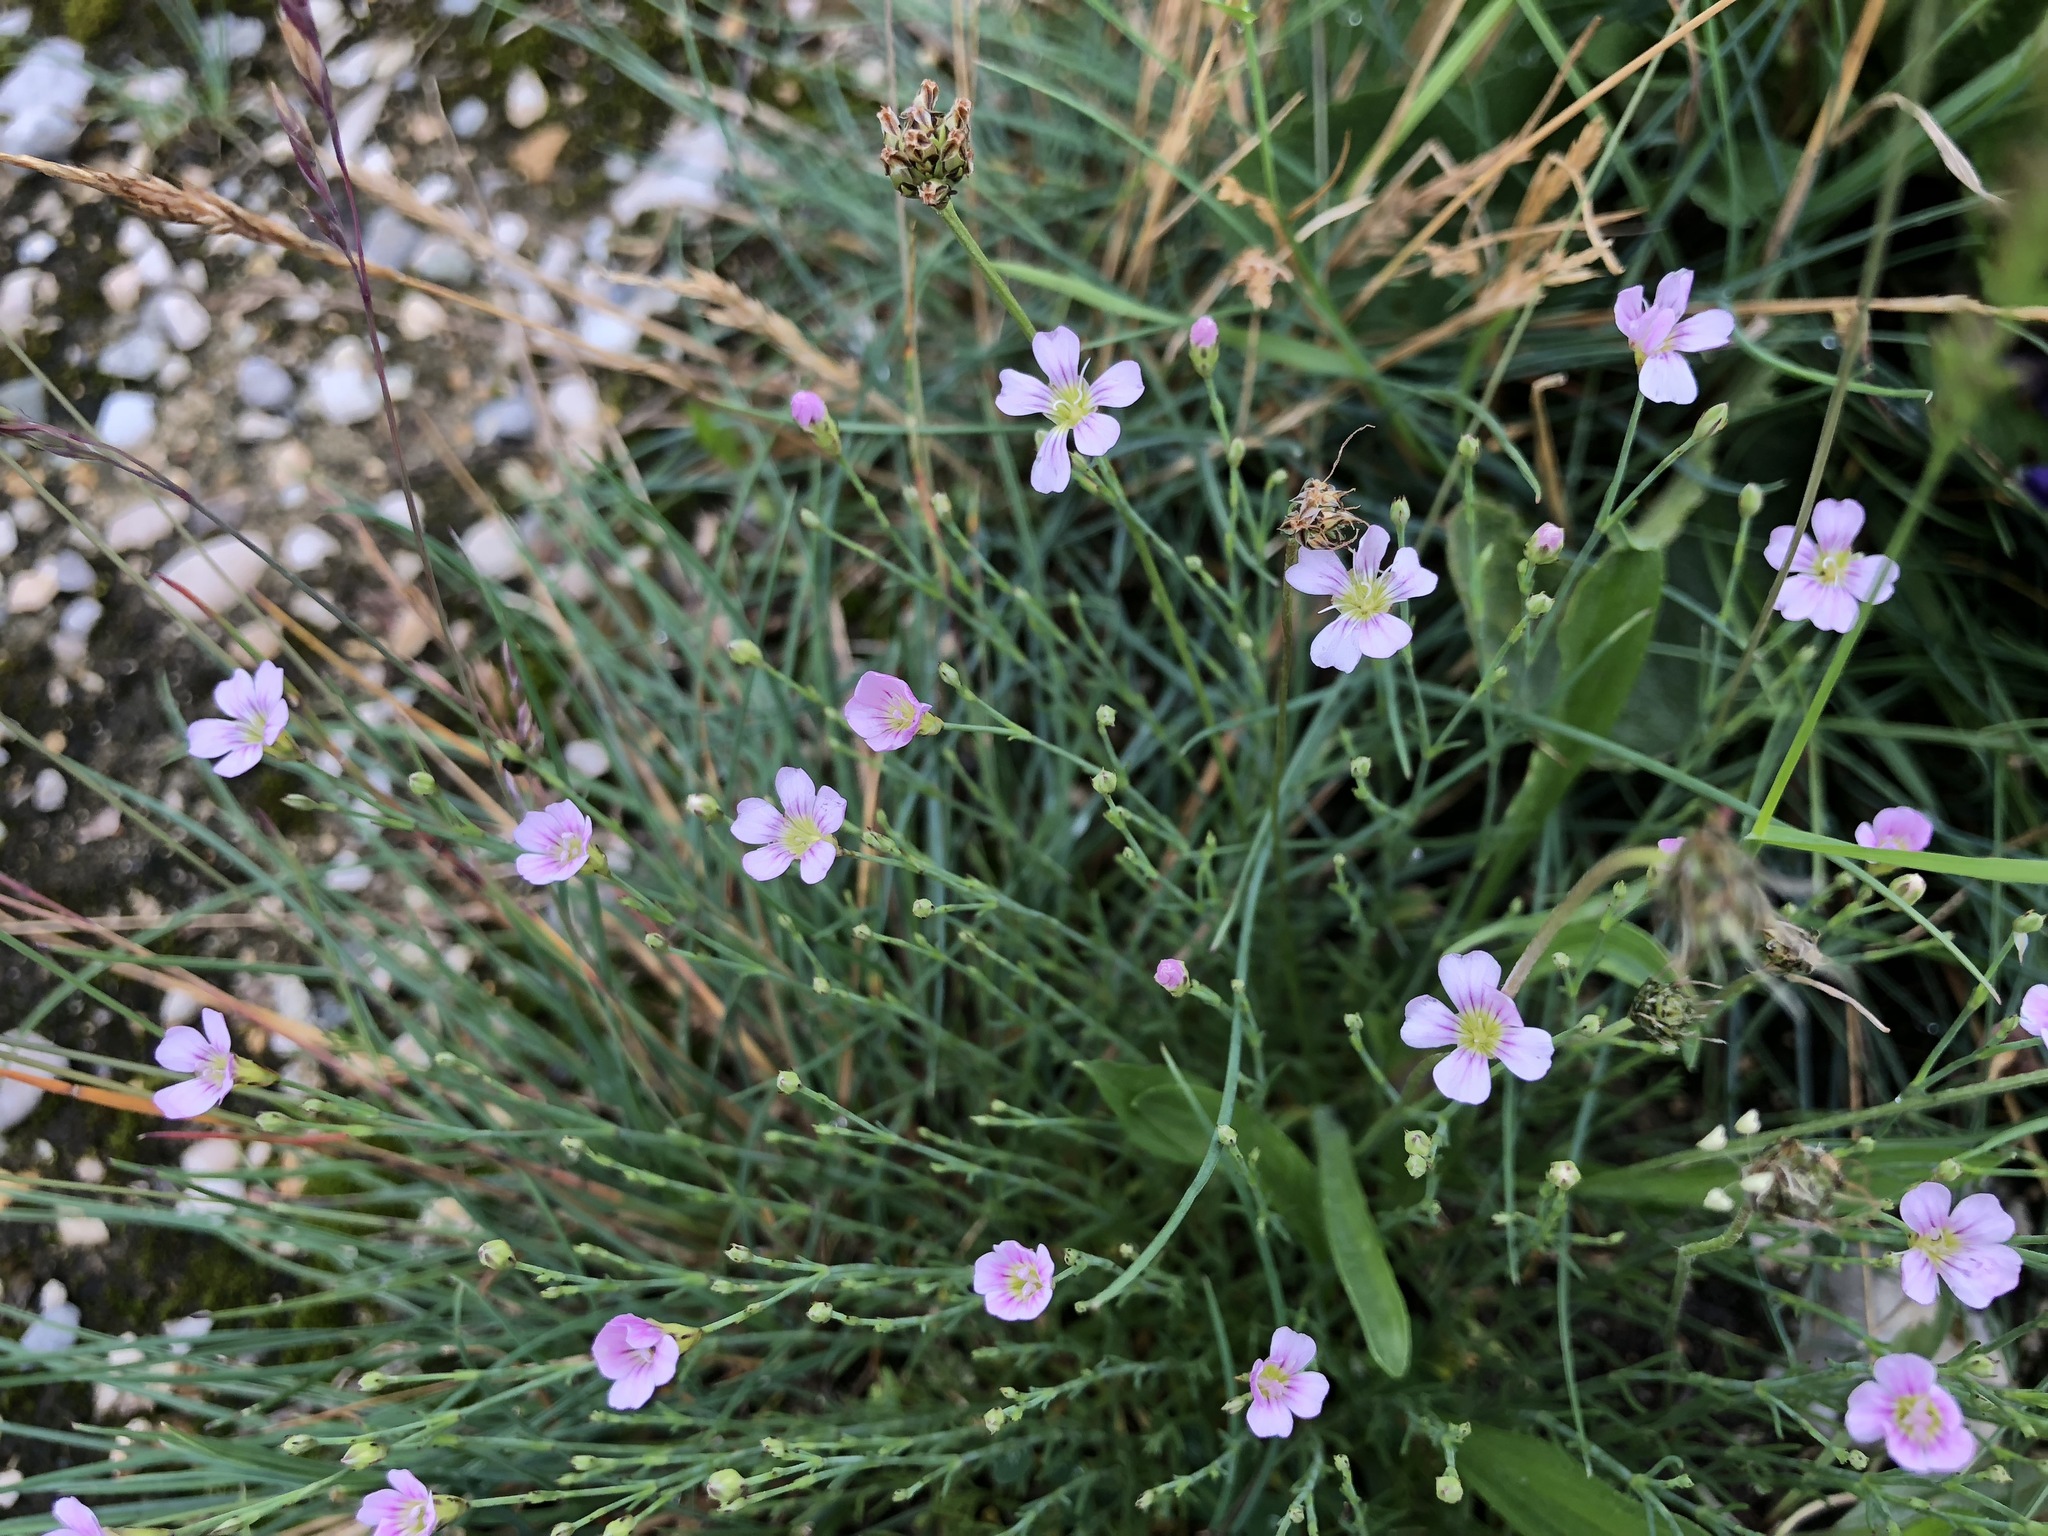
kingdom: Plantae
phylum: Tracheophyta
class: Magnoliopsida
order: Caryophyllales
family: Caryophyllaceae
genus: Petrorhagia
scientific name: Petrorhagia saxifraga
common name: Tunicflower
